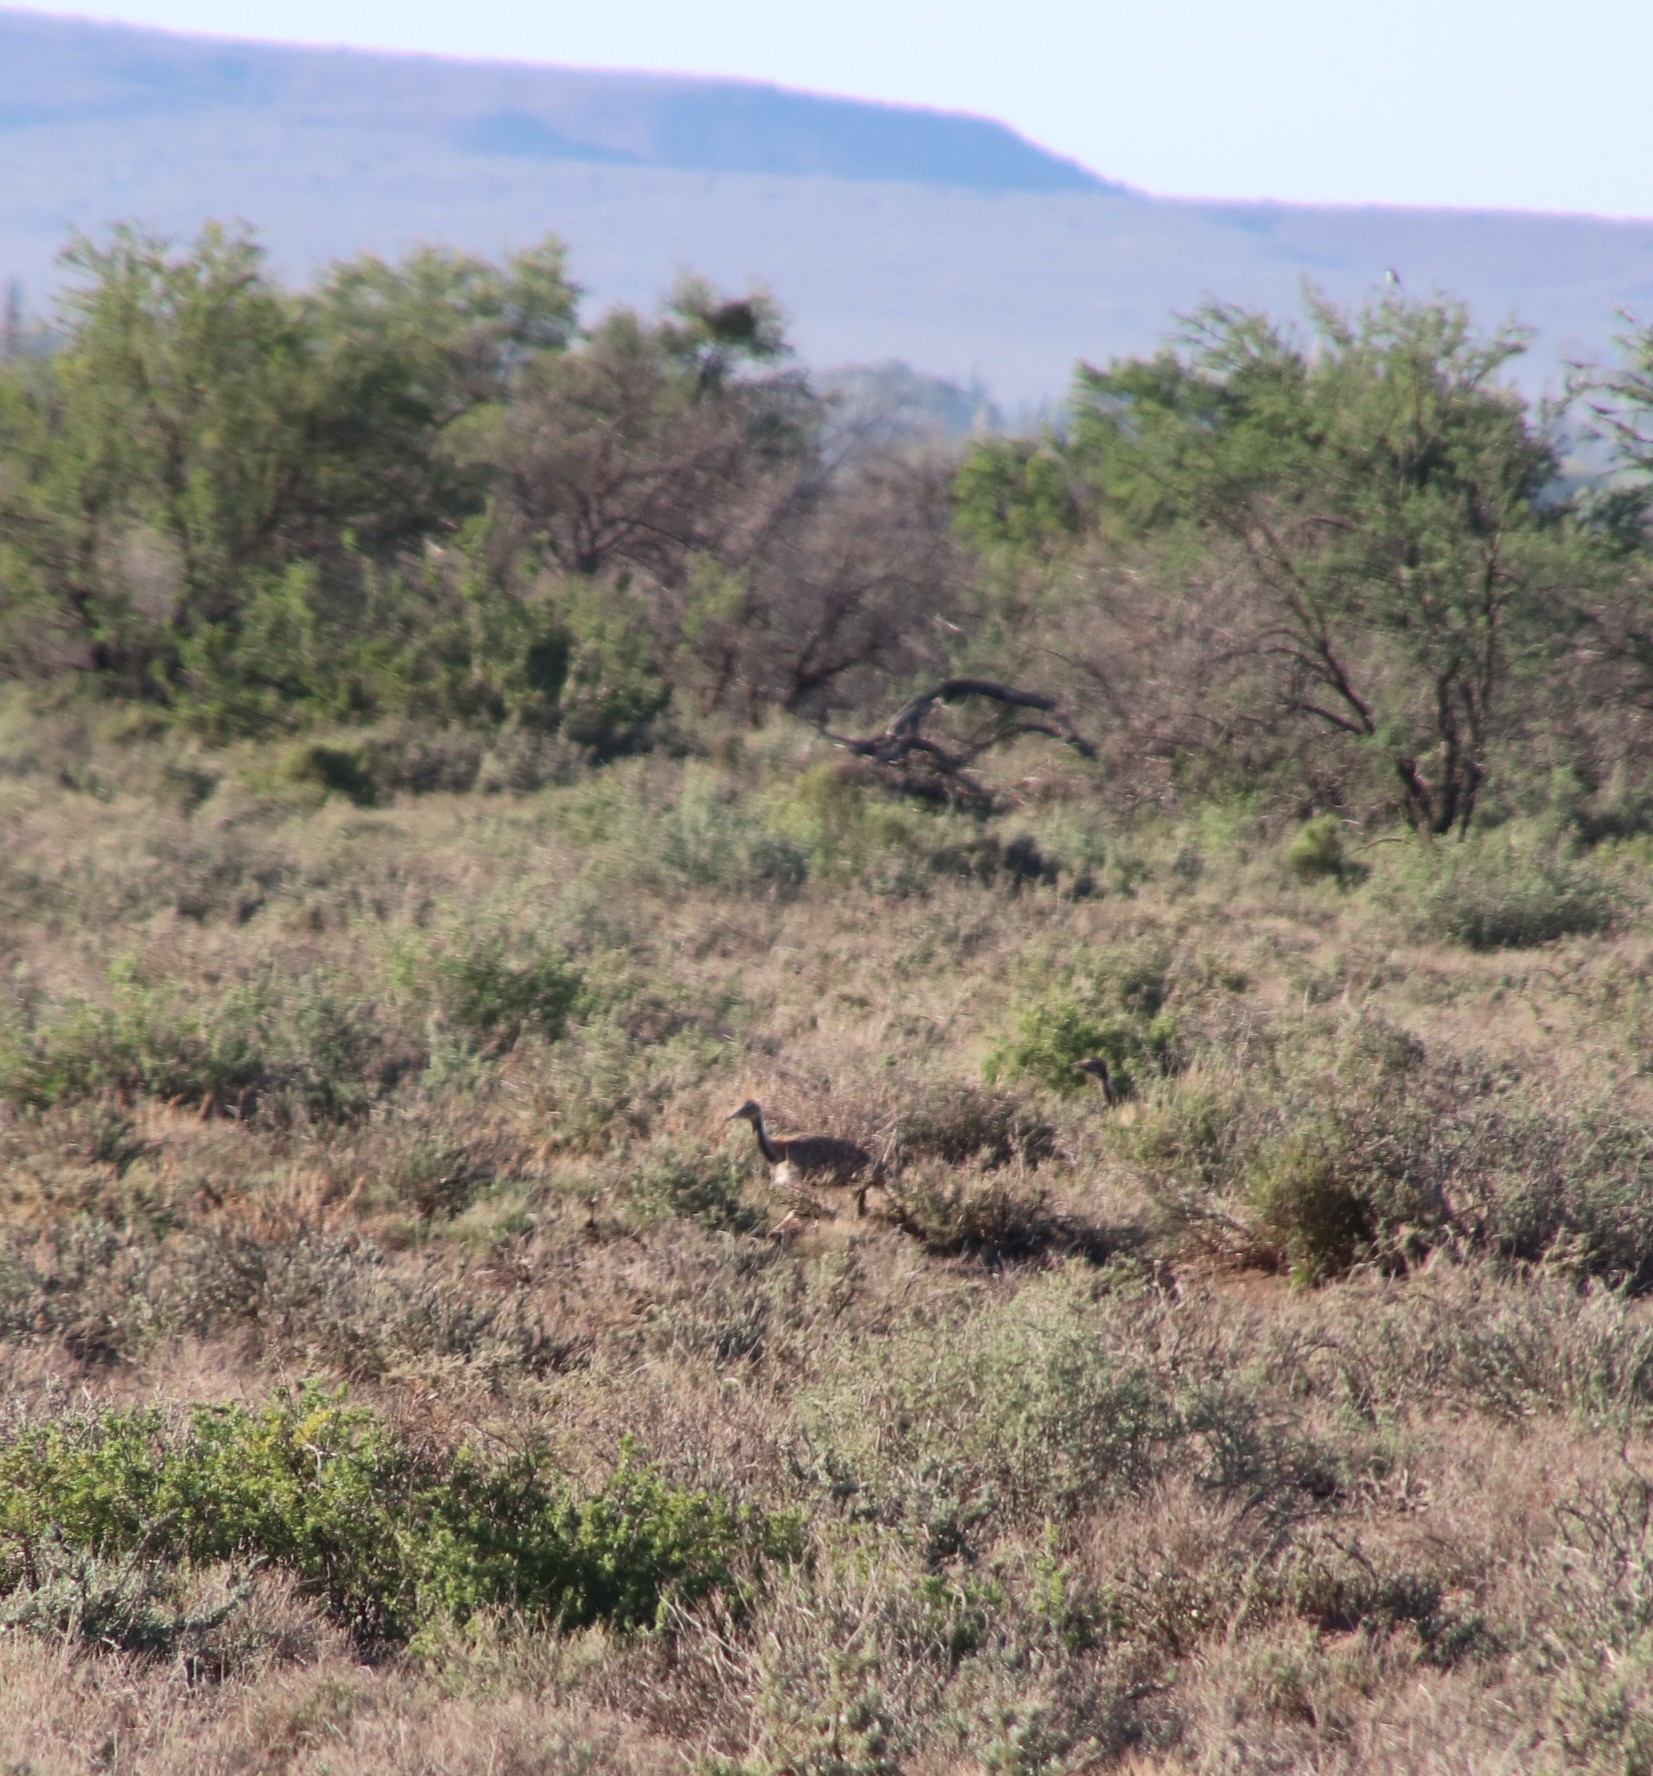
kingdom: Animalia
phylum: Chordata
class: Aves
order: Otidiformes
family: Otididae
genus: Neotis
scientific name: Neotis ludwigii
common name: Ludwig's bustard
